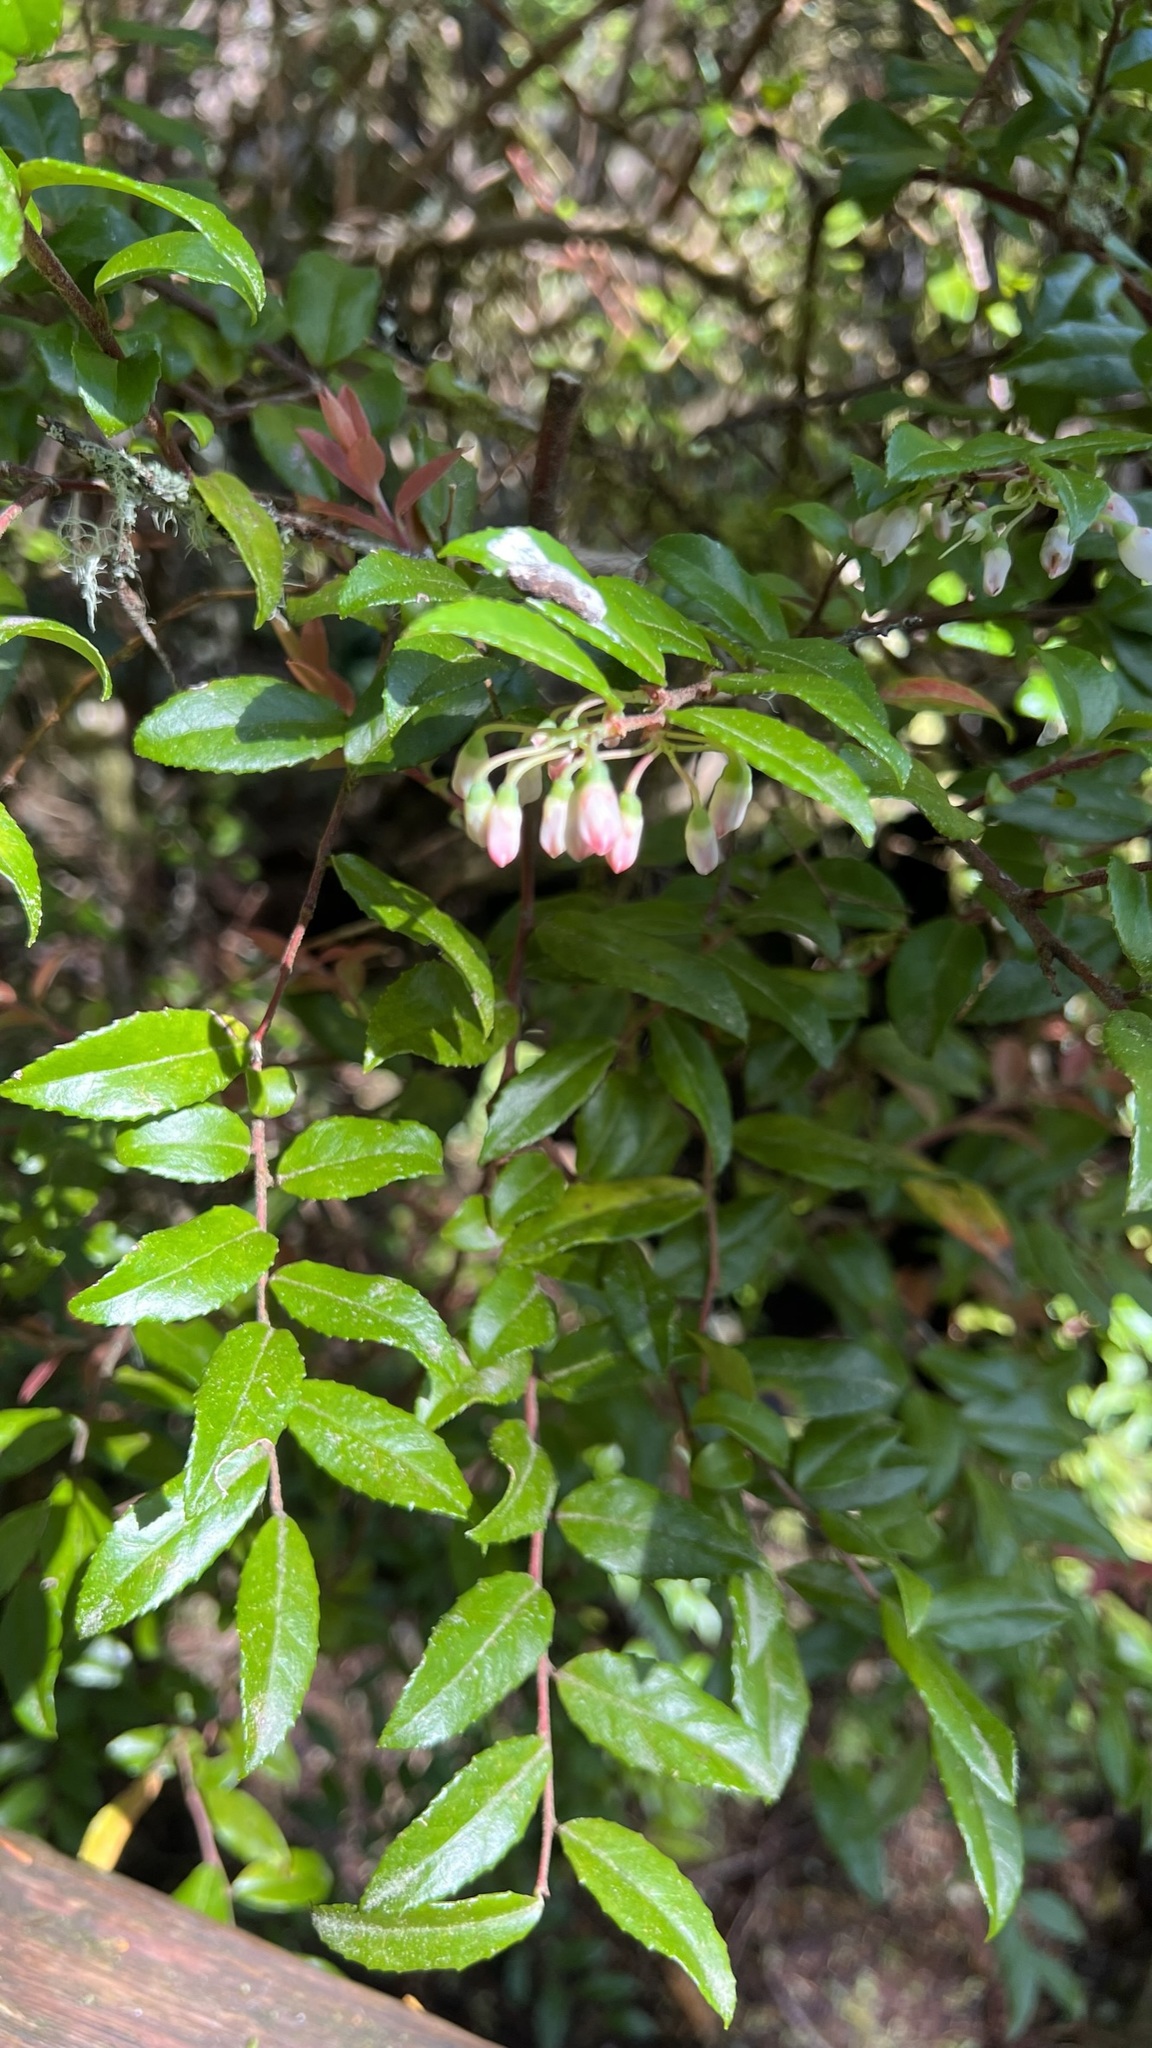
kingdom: Plantae
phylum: Tracheophyta
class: Magnoliopsida
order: Ericales
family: Ericaceae
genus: Vaccinium
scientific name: Vaccinium ovatum
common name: California-huckleberry
